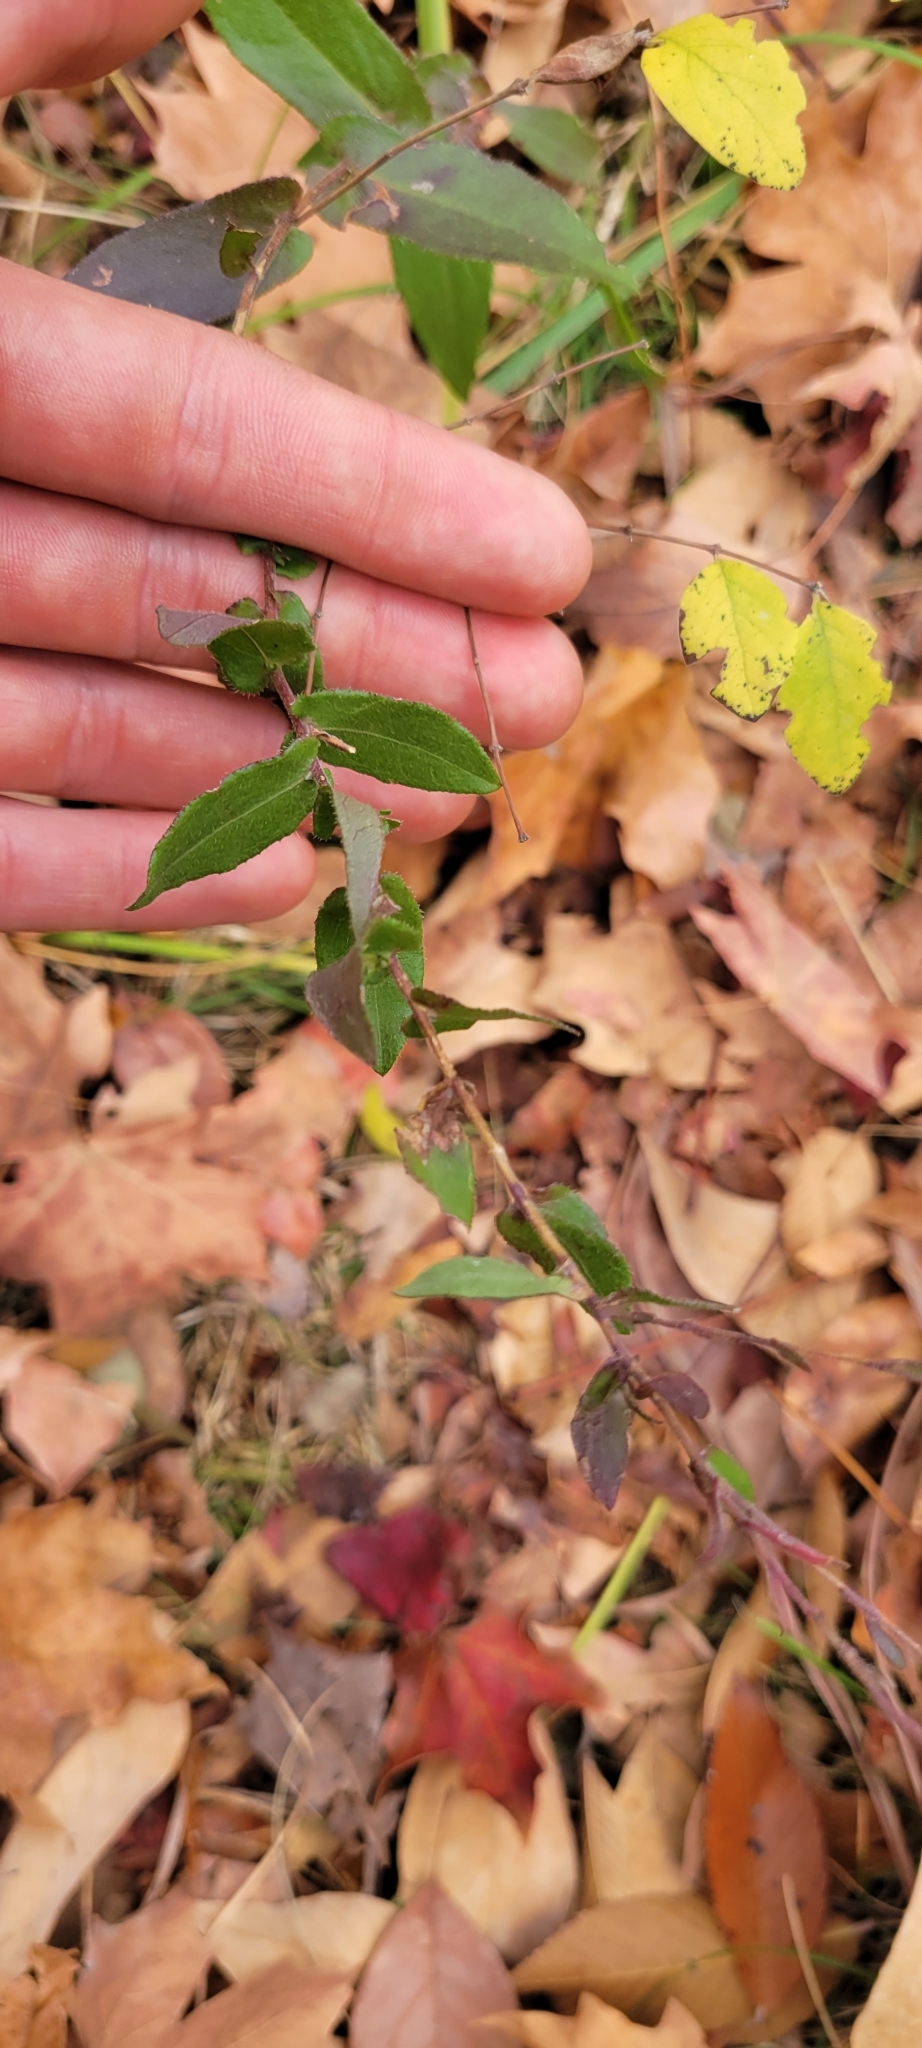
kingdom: Plantae
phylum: Tracheophyta
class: Magnoliopsida
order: Asterales
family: Asteraceae
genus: Symphyotrichum
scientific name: Symphyotrichum patens
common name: Late purple aster
